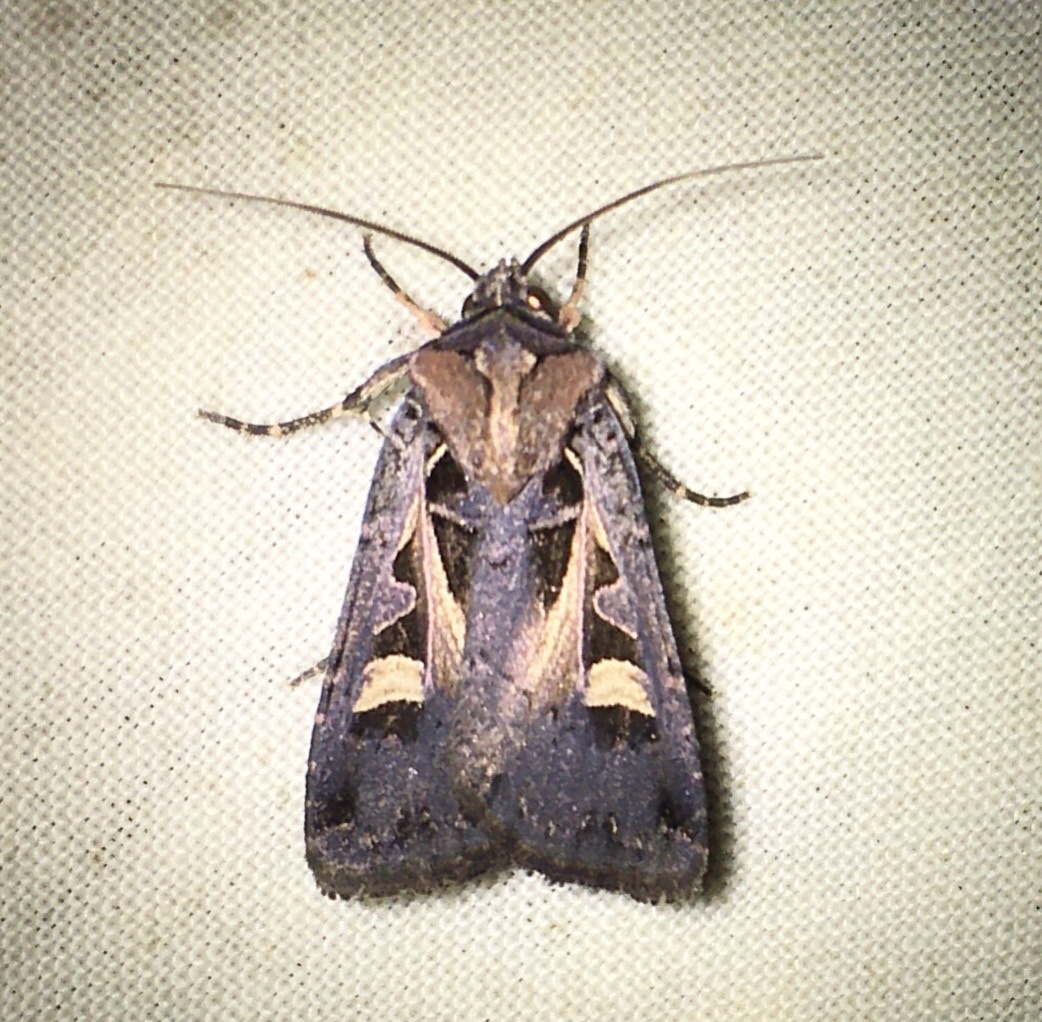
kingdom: Animalia
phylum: Arthropoda
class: Insecta
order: Lepidoptera
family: Noctuidae
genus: Feltia
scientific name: Feltia herilis
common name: Master's dart
